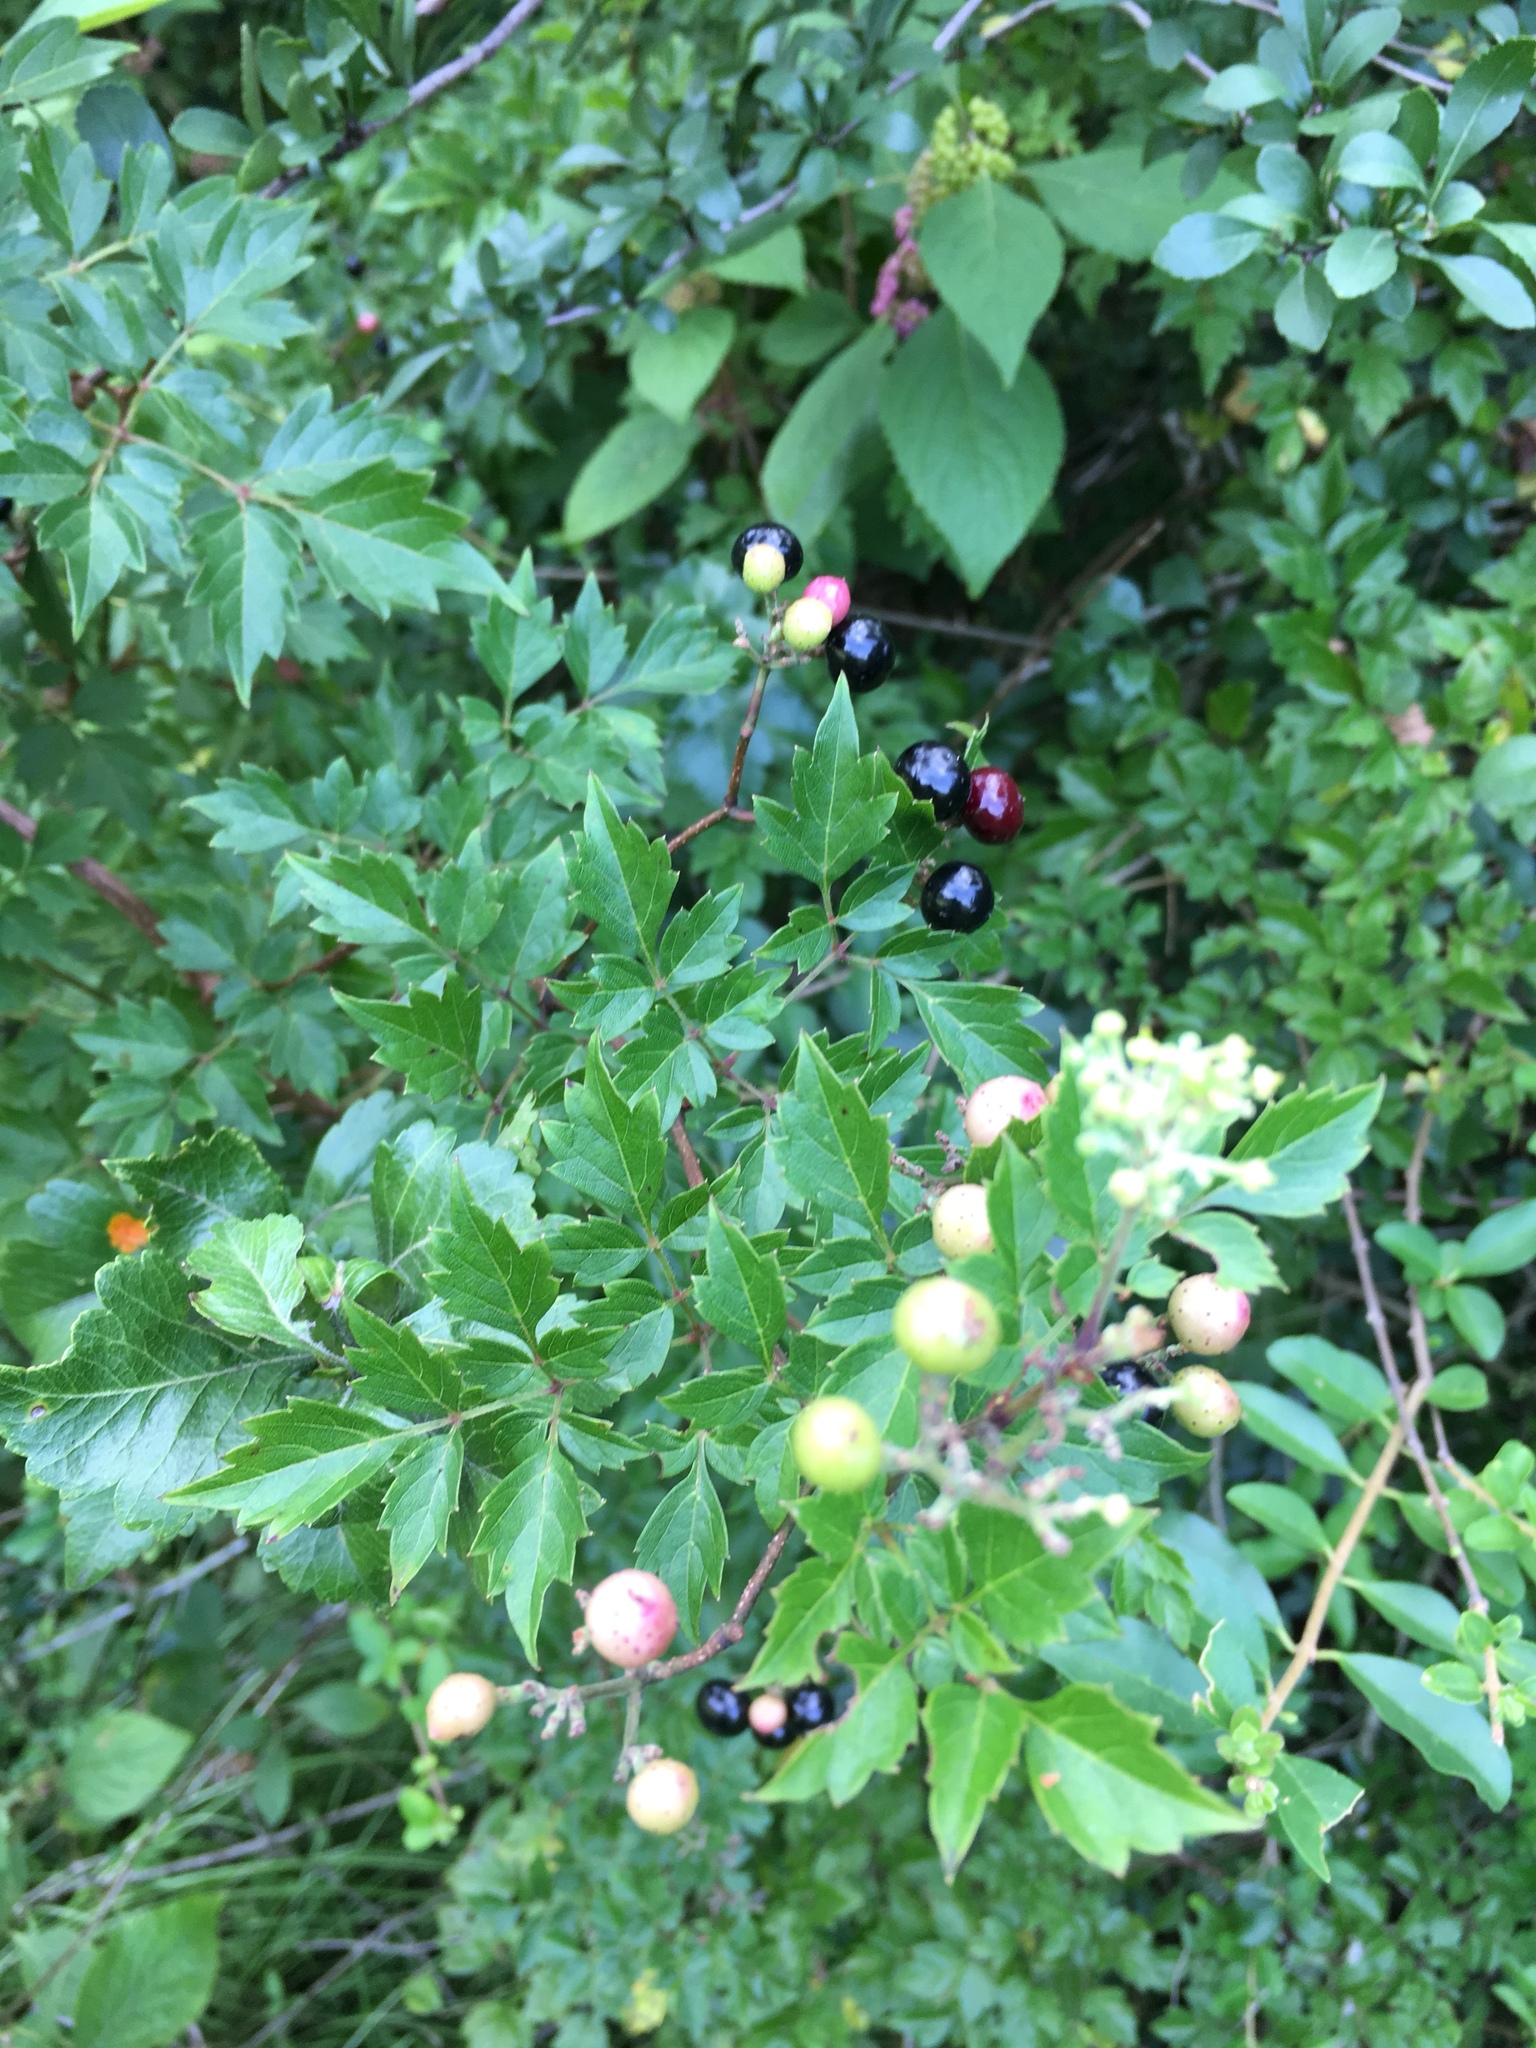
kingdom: Plantae
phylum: Tracheophyta
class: Magnoliopsida
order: Vitales
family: Vitaceae
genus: Nekemias
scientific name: Nekemias arborea
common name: Peppervine
